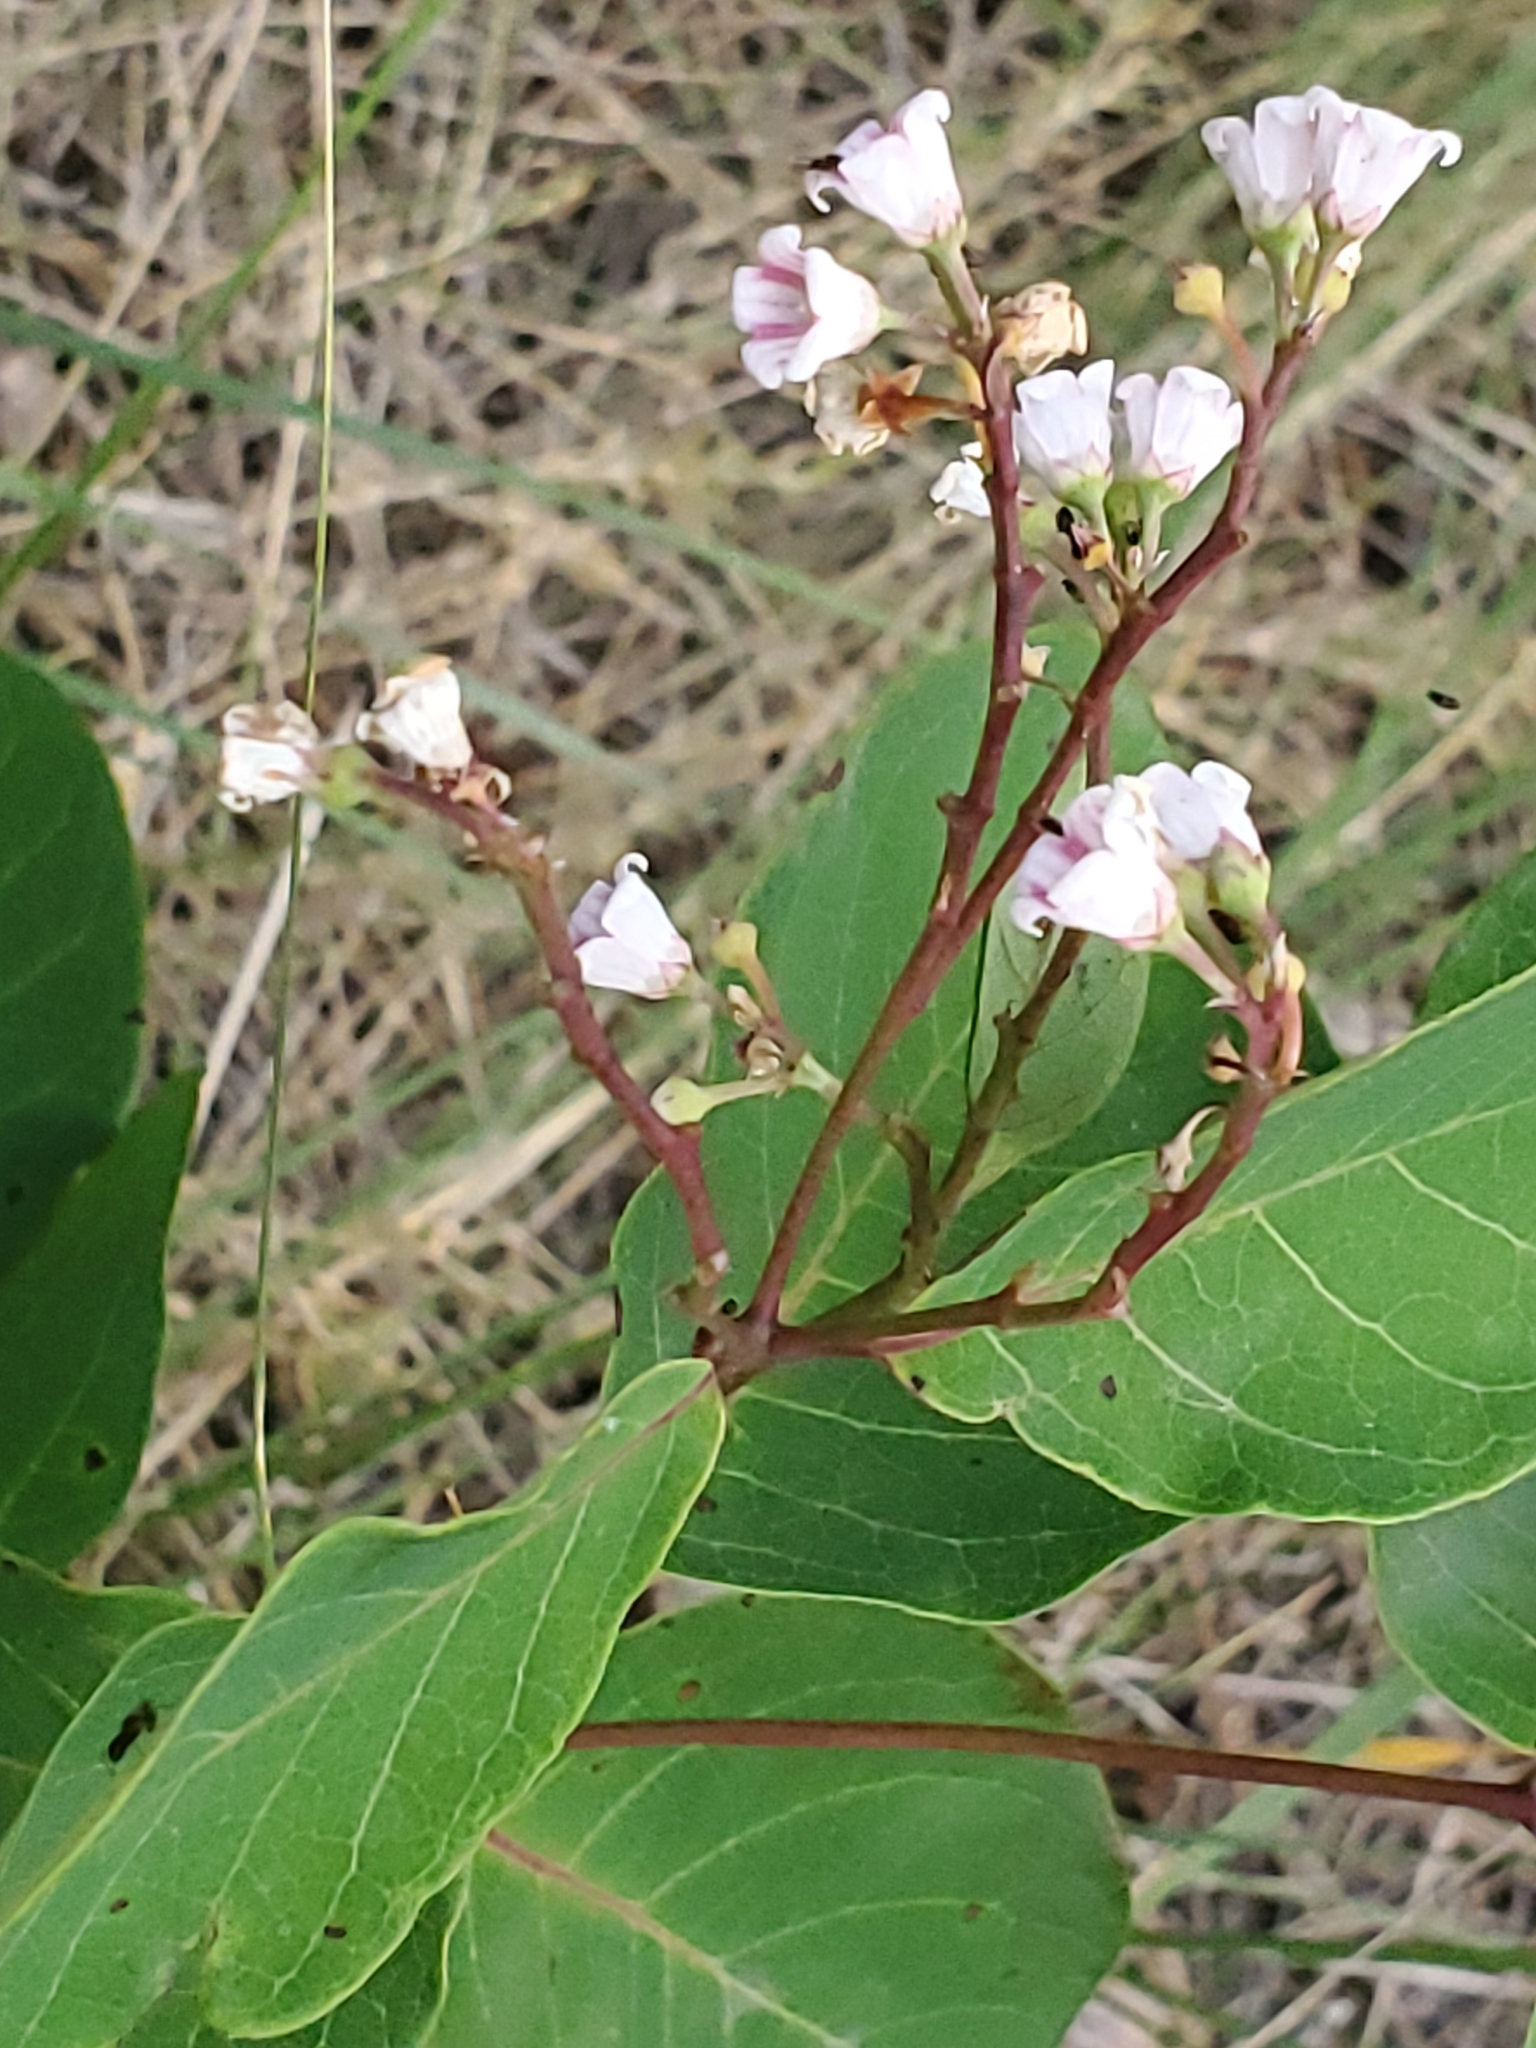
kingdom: Plantae
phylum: Tracheophyta
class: Magnoliopsida
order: Gentianales
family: Apocynaceae
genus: Apocynum
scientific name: Apocynum androsaemifolium
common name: Spreading dogbane
